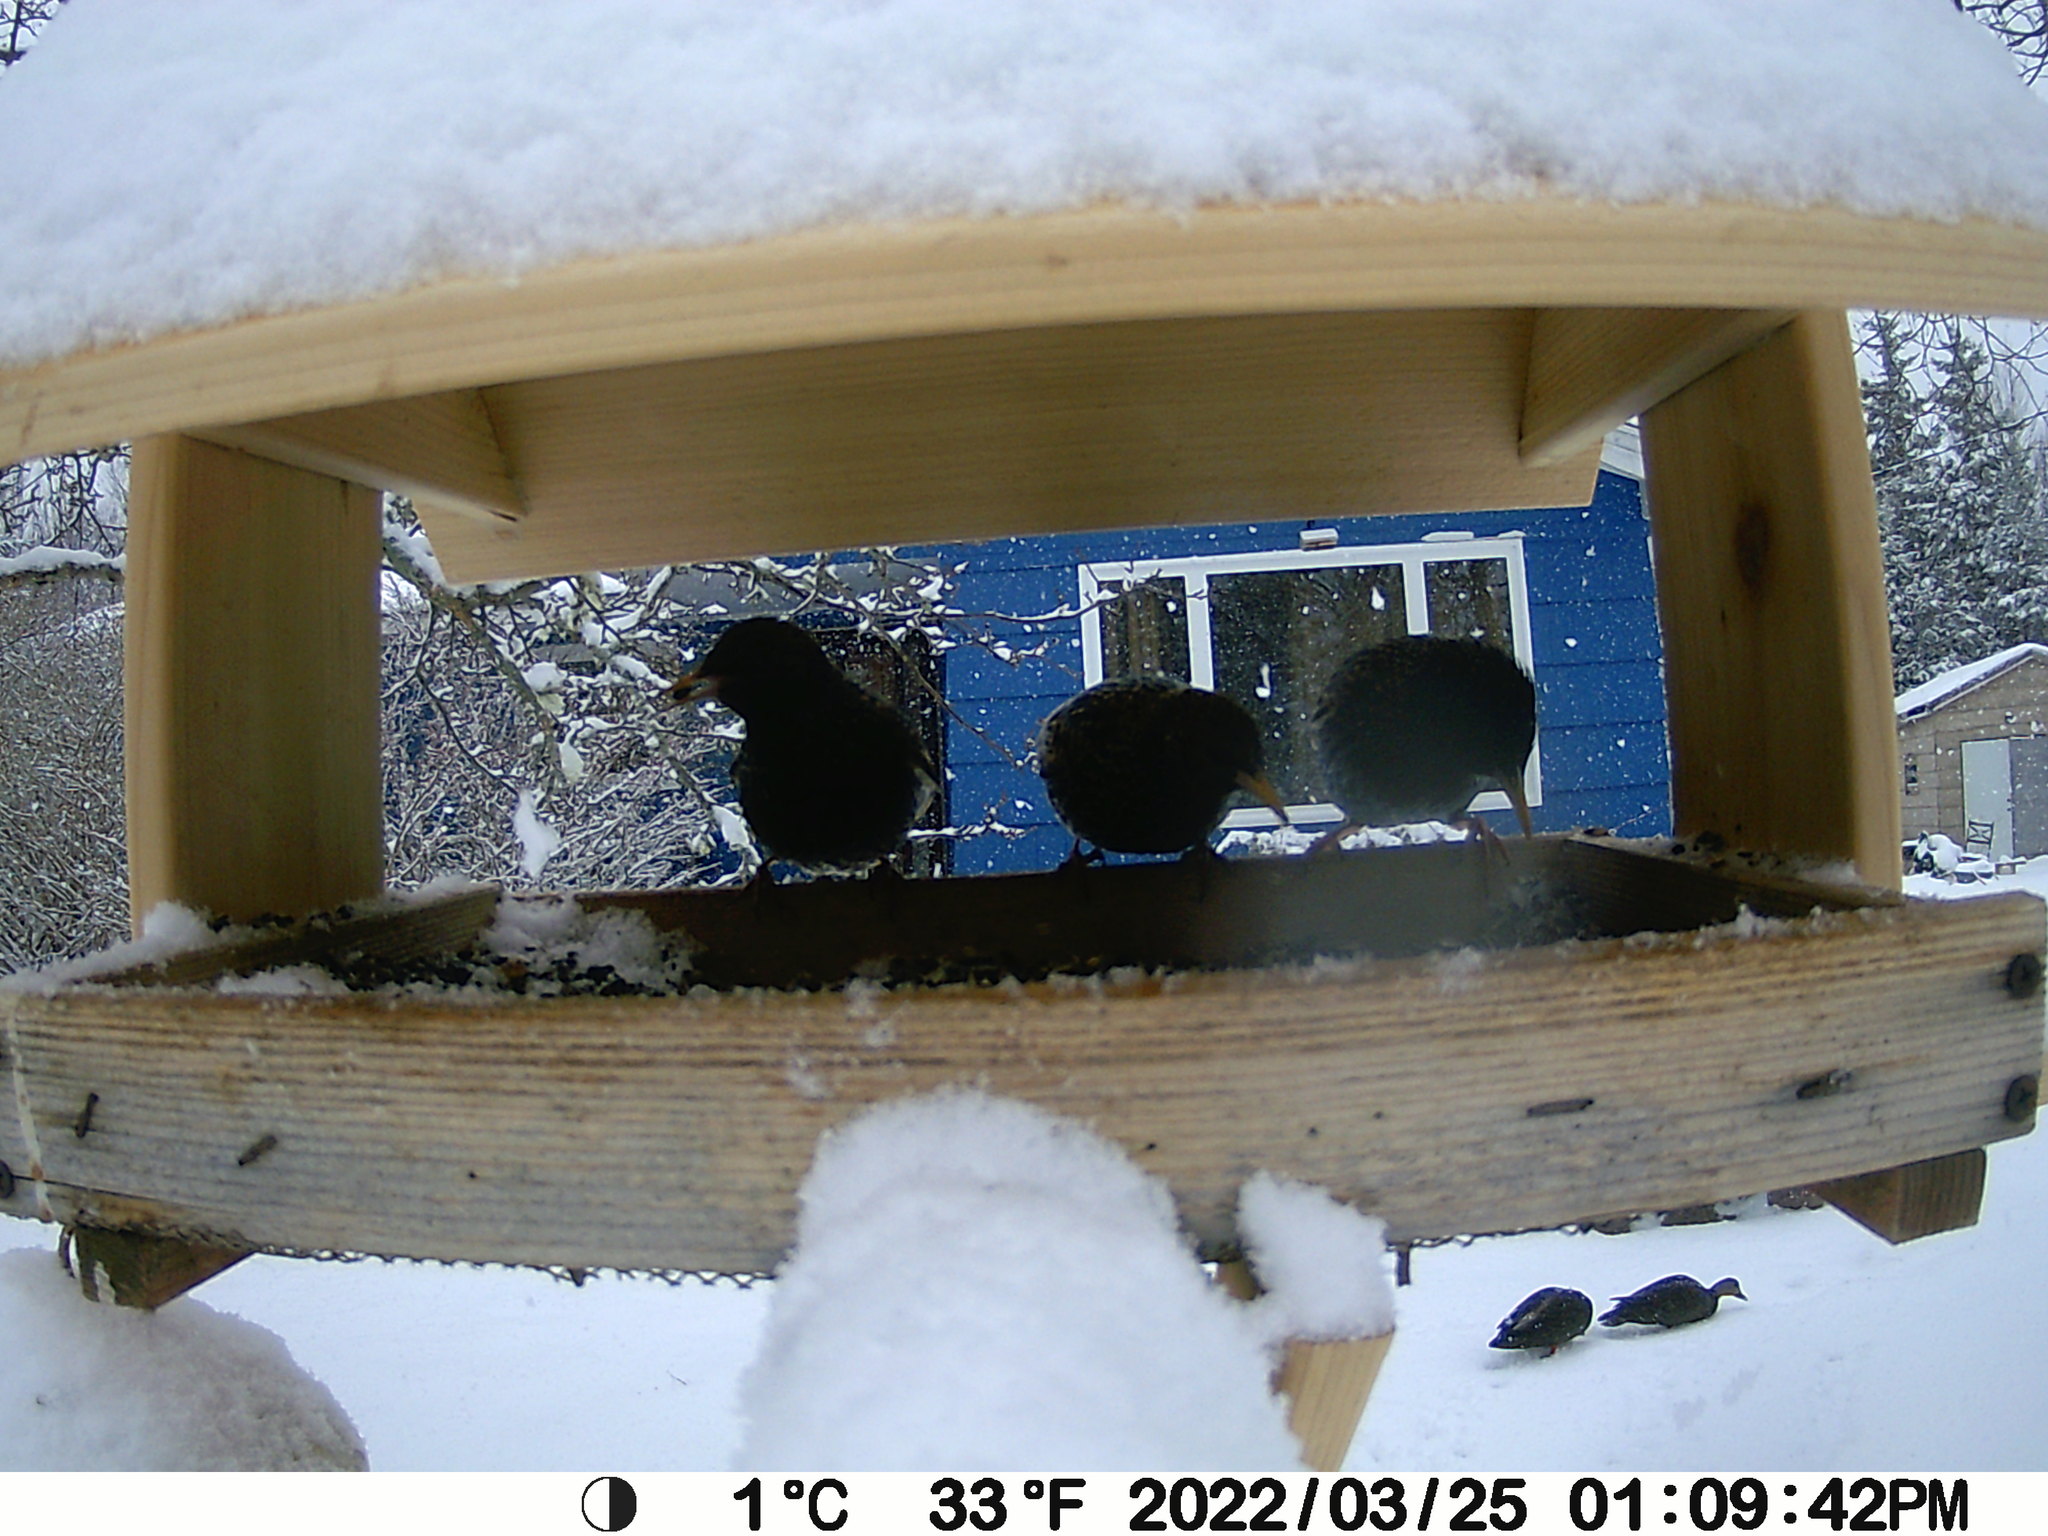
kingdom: Animalia
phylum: Chordata
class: Aves
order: Passeriformes
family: Sturnidae
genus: Sturnus
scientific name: Sturnus vulgaris
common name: Common starling
